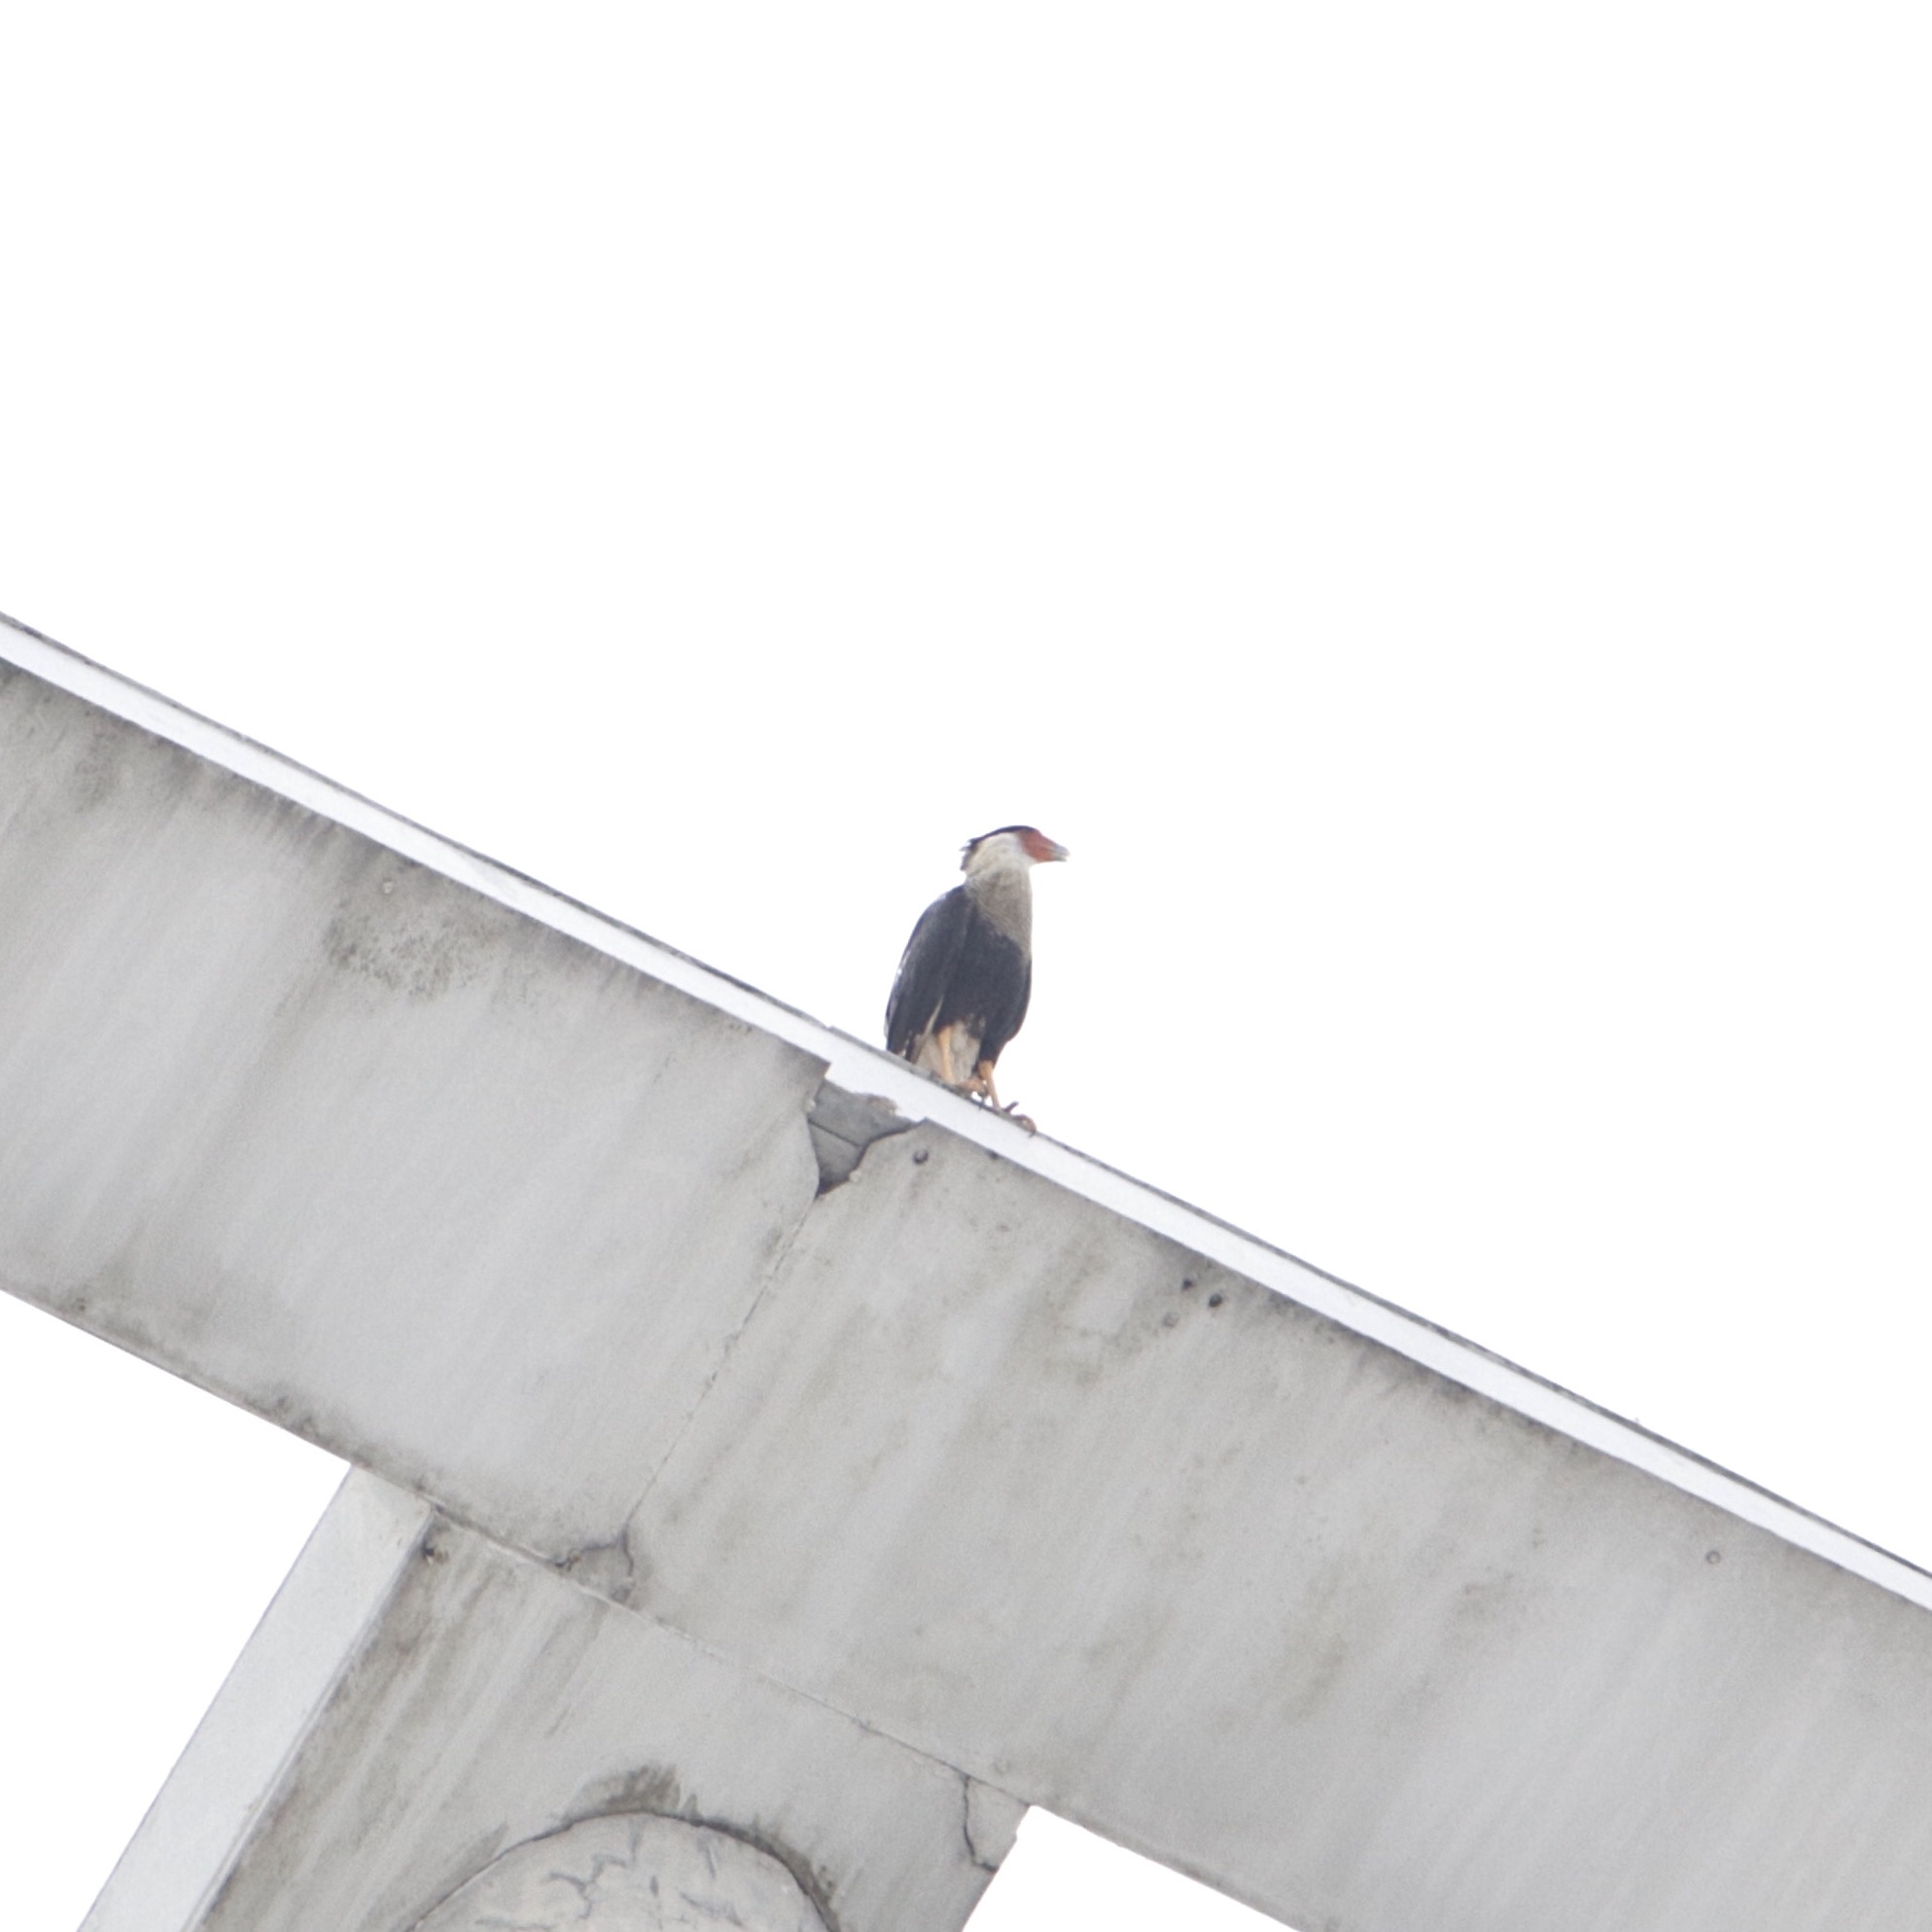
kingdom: Animalia
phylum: Chordata
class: Aves
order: Falconiformes
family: Falconidae
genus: Caracara
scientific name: Caracara plancus
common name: Southern caracara
